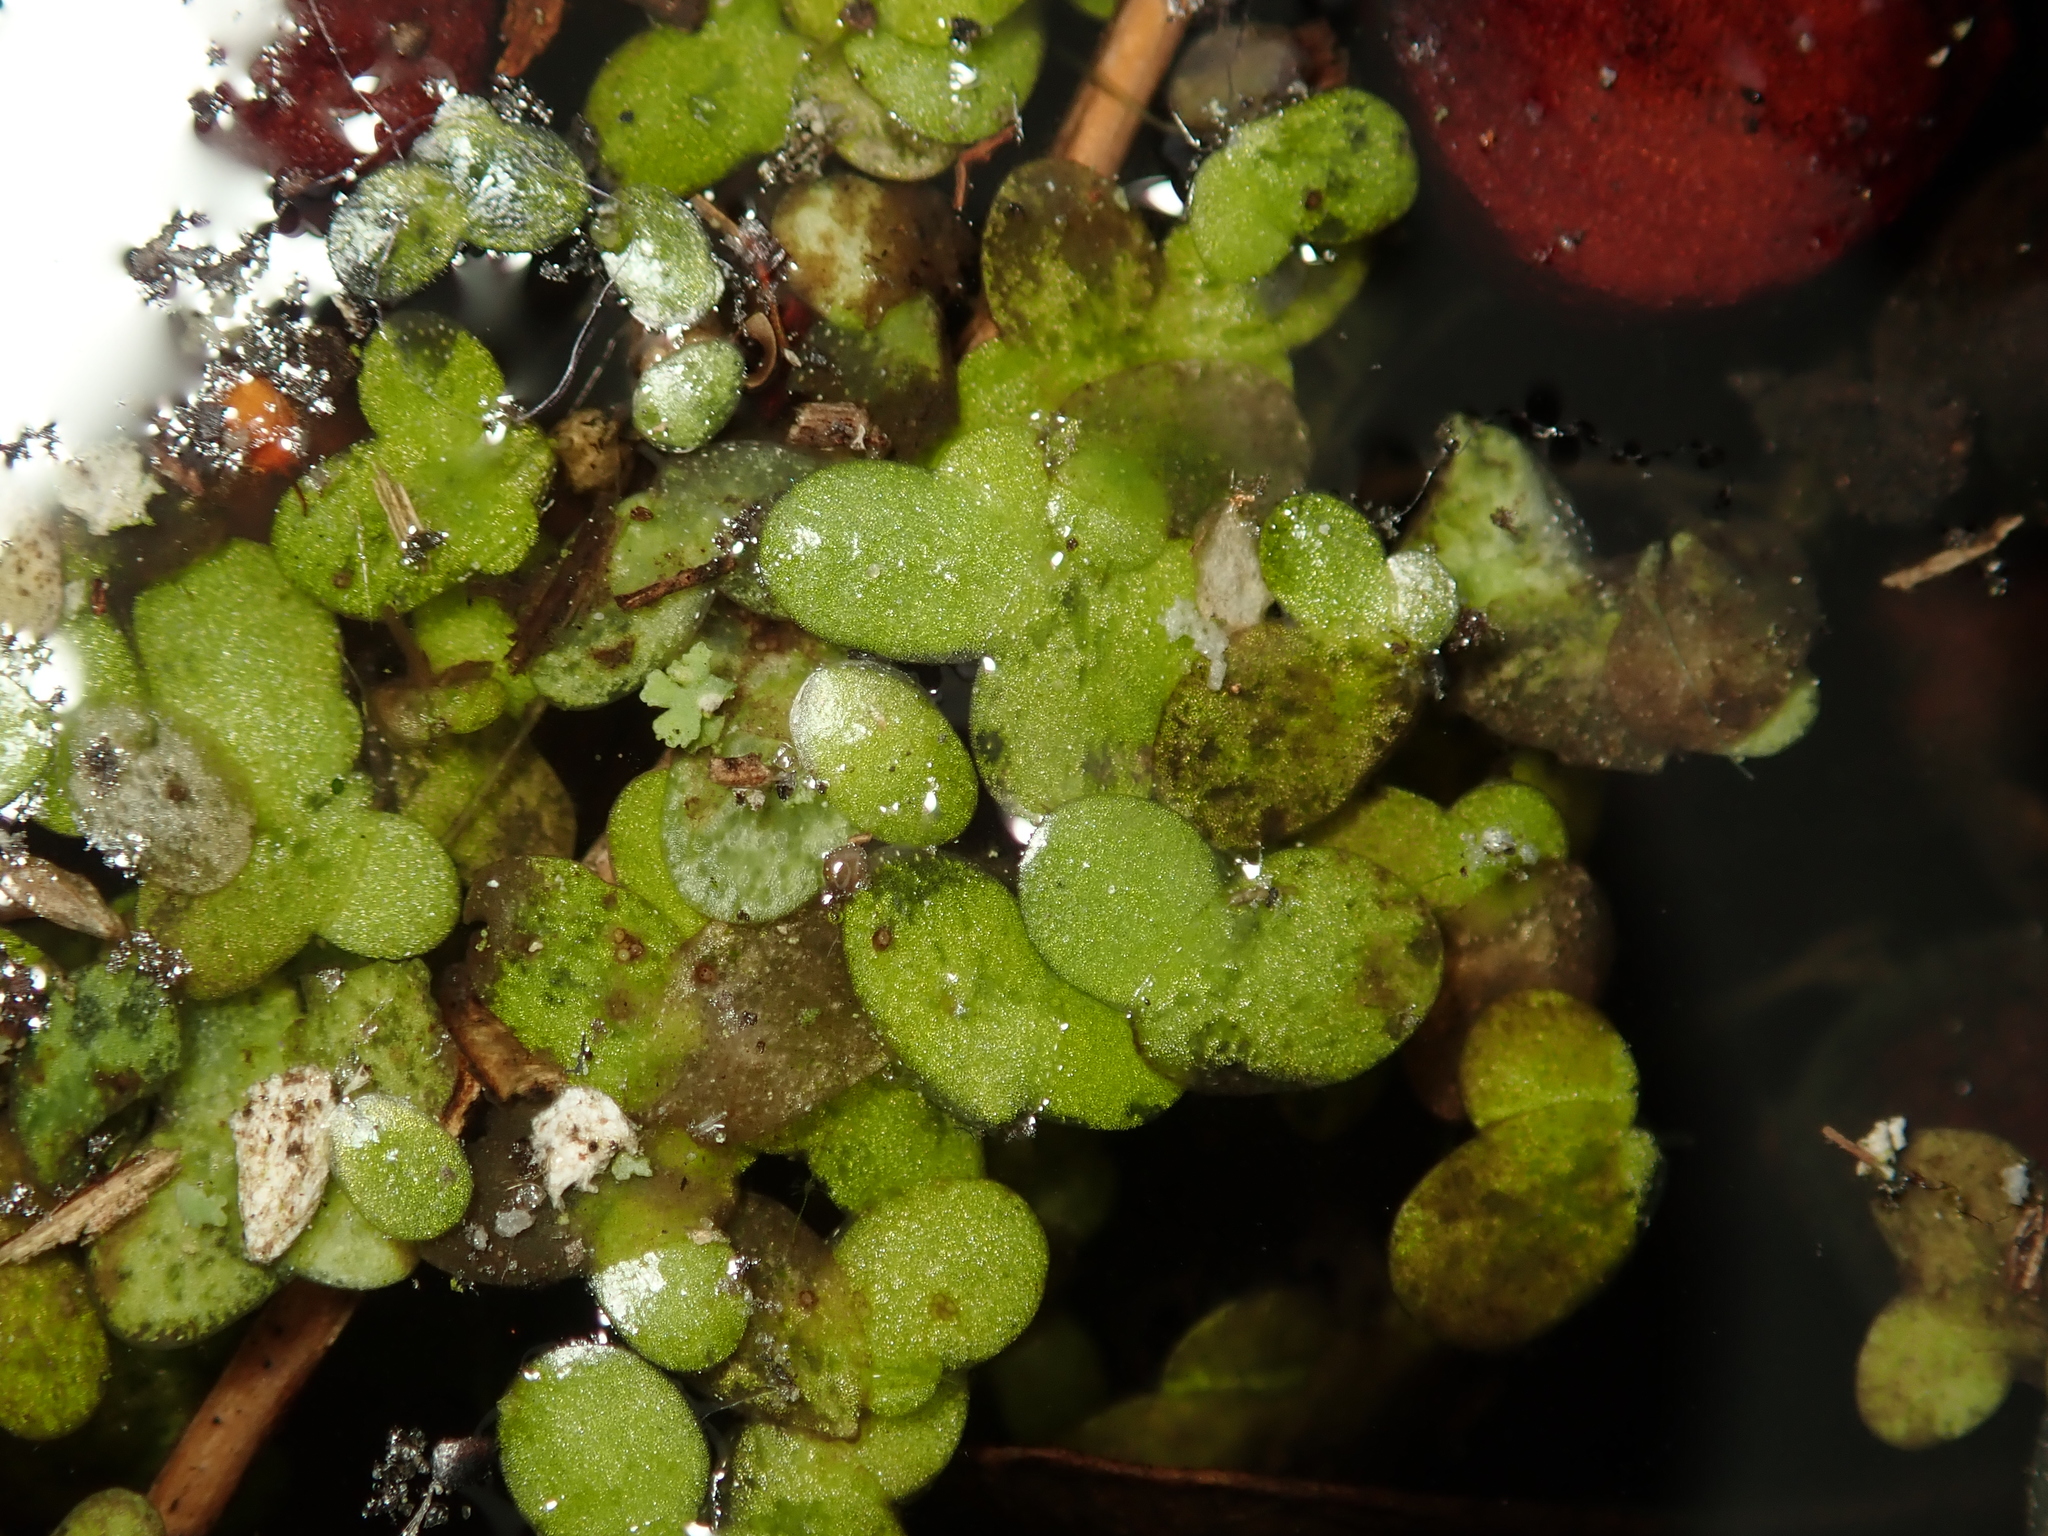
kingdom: Plantae
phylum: Tracheophyta
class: Liliopsida
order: Alismatales
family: Araceae
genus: Lemna
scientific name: Lemna minor
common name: Common duckweed
